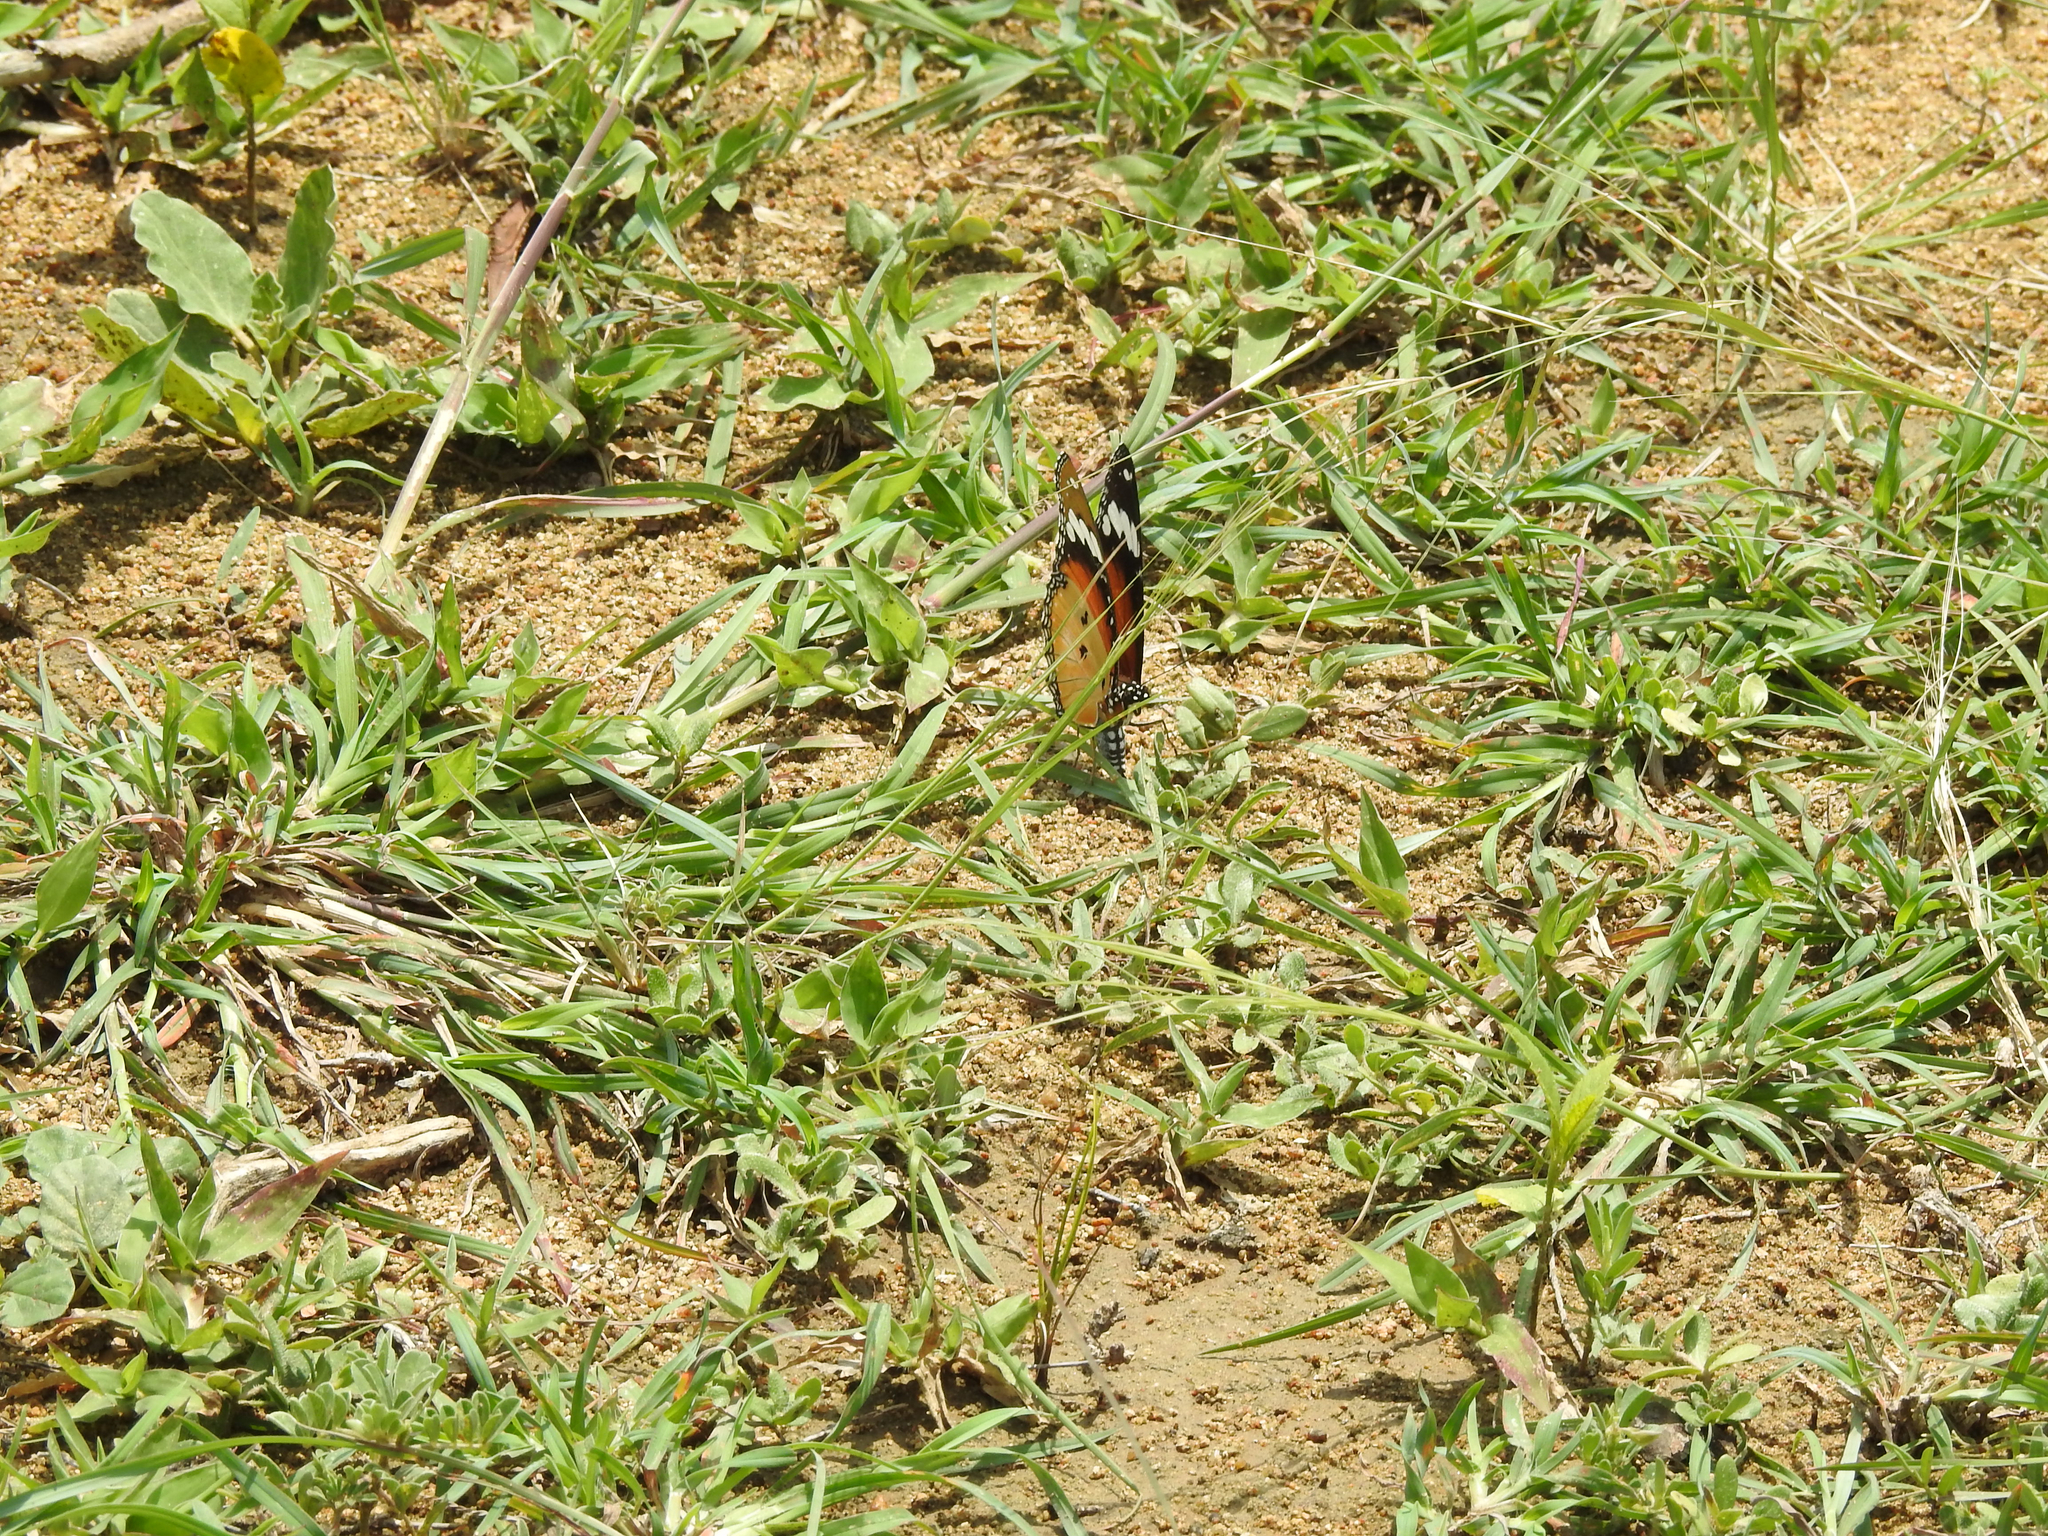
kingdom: Animalia
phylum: Arthropoda
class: Insecta
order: Lepidoptera
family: Nymphalidae
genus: Hypolimnas
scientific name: Hypolimnas misippus
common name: False plain tiger
